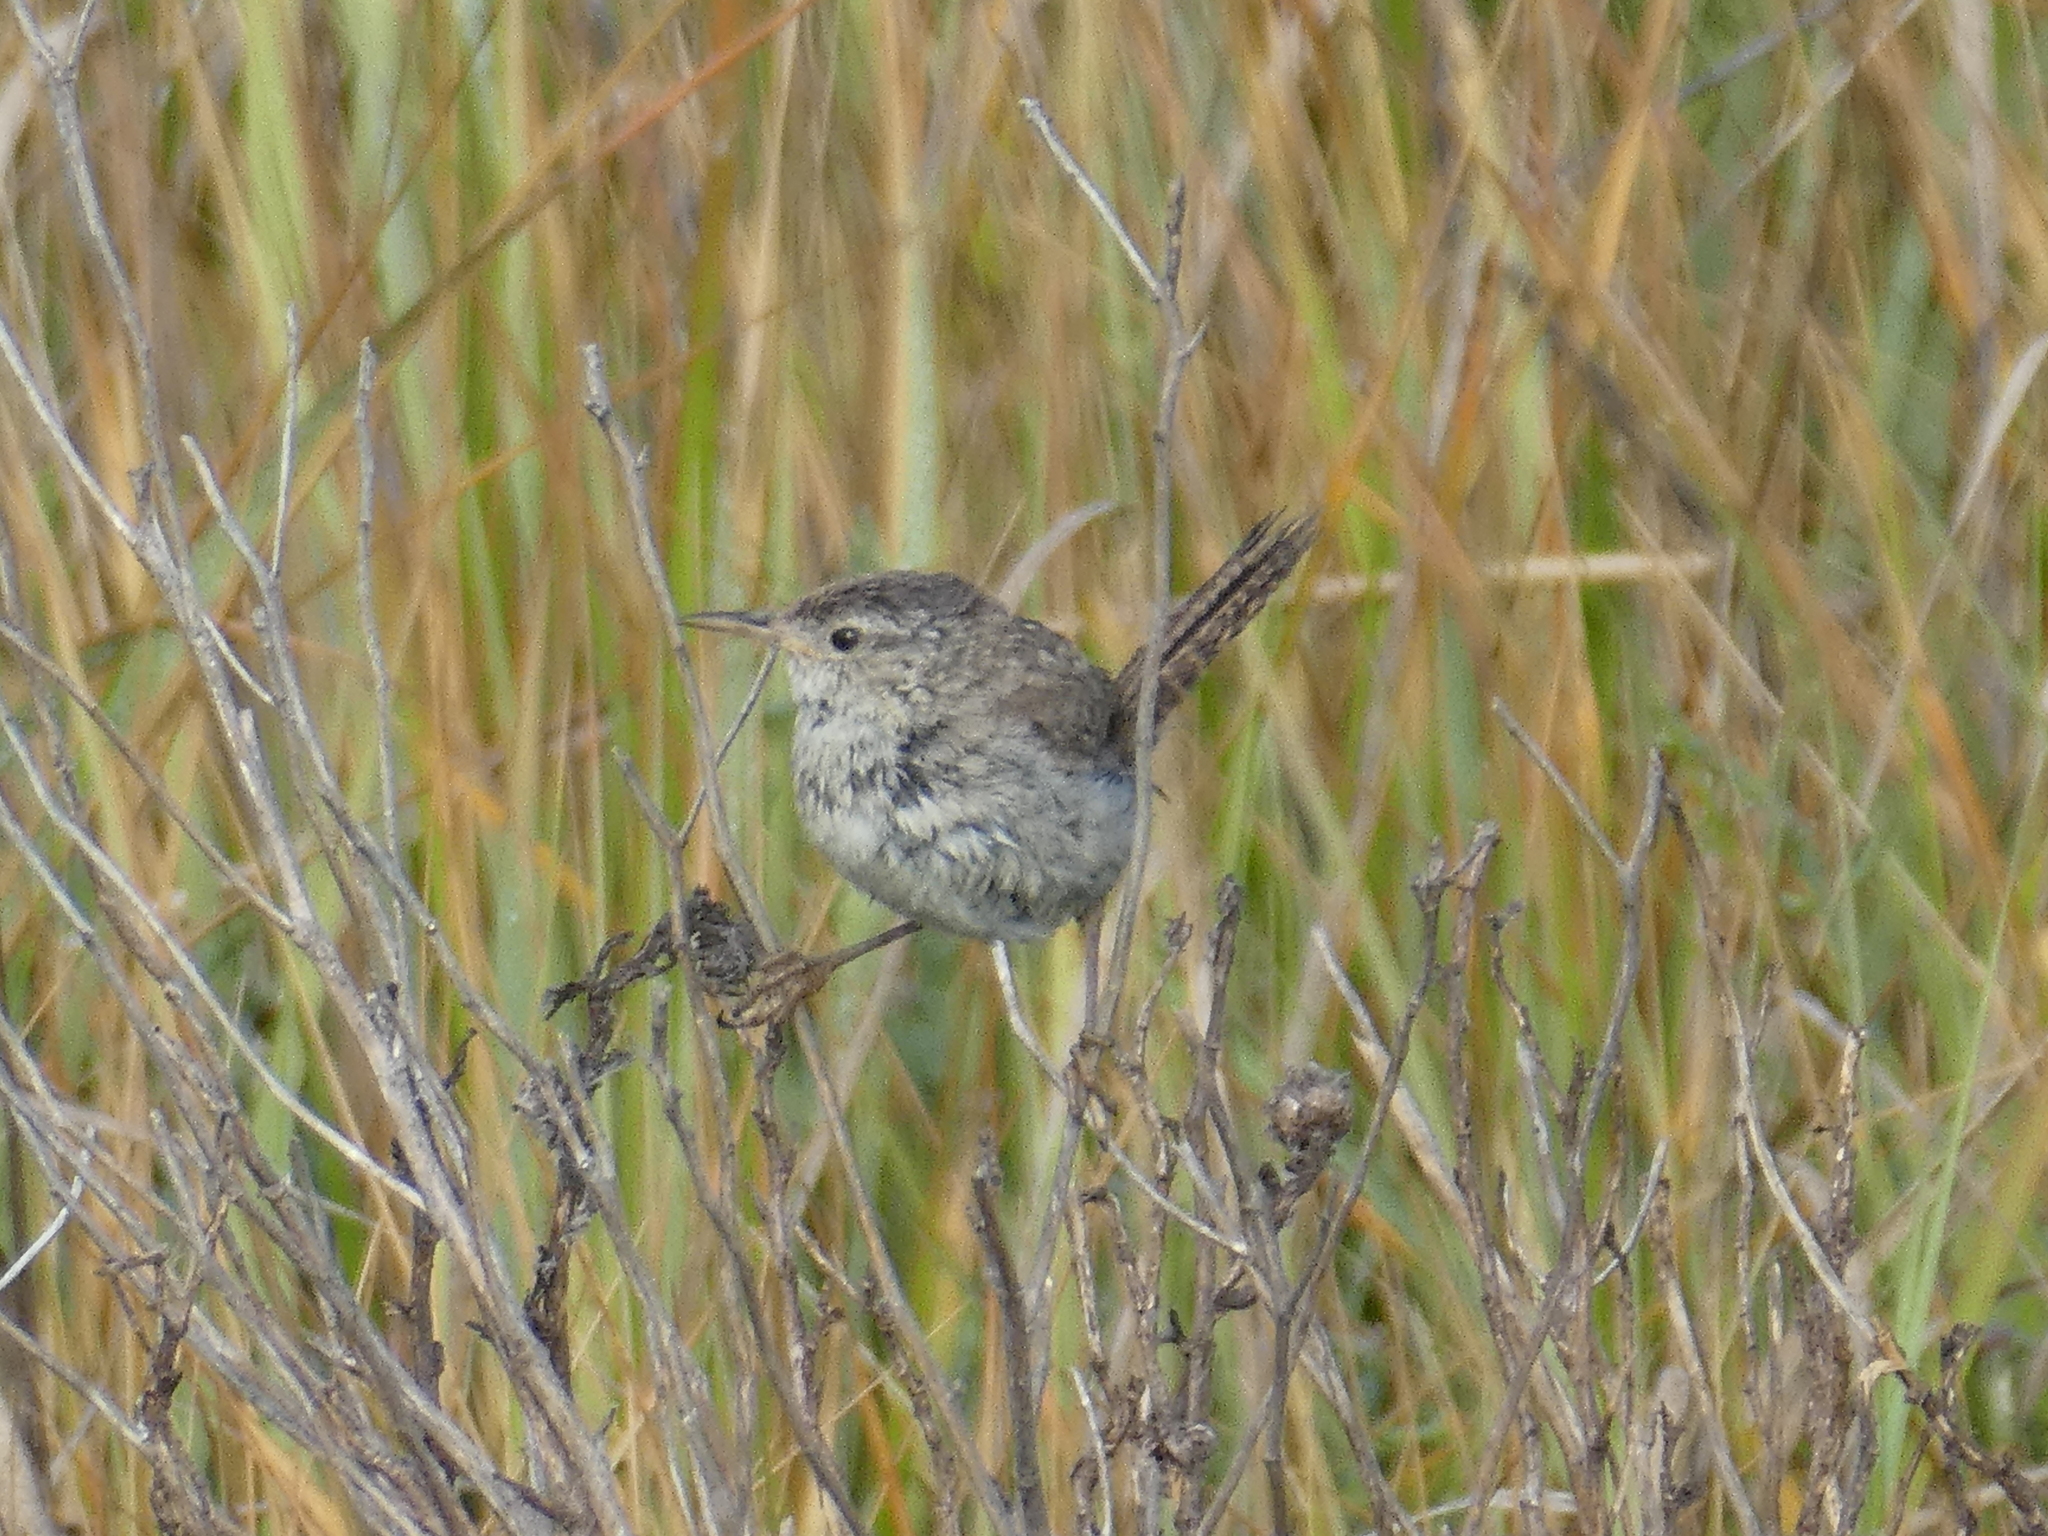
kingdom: Animalia
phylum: Chordata
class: Aves
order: Passeriformes
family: Troglodytidae
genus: Cistothorus
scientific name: Cistothorus palustris
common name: Marsh wren
